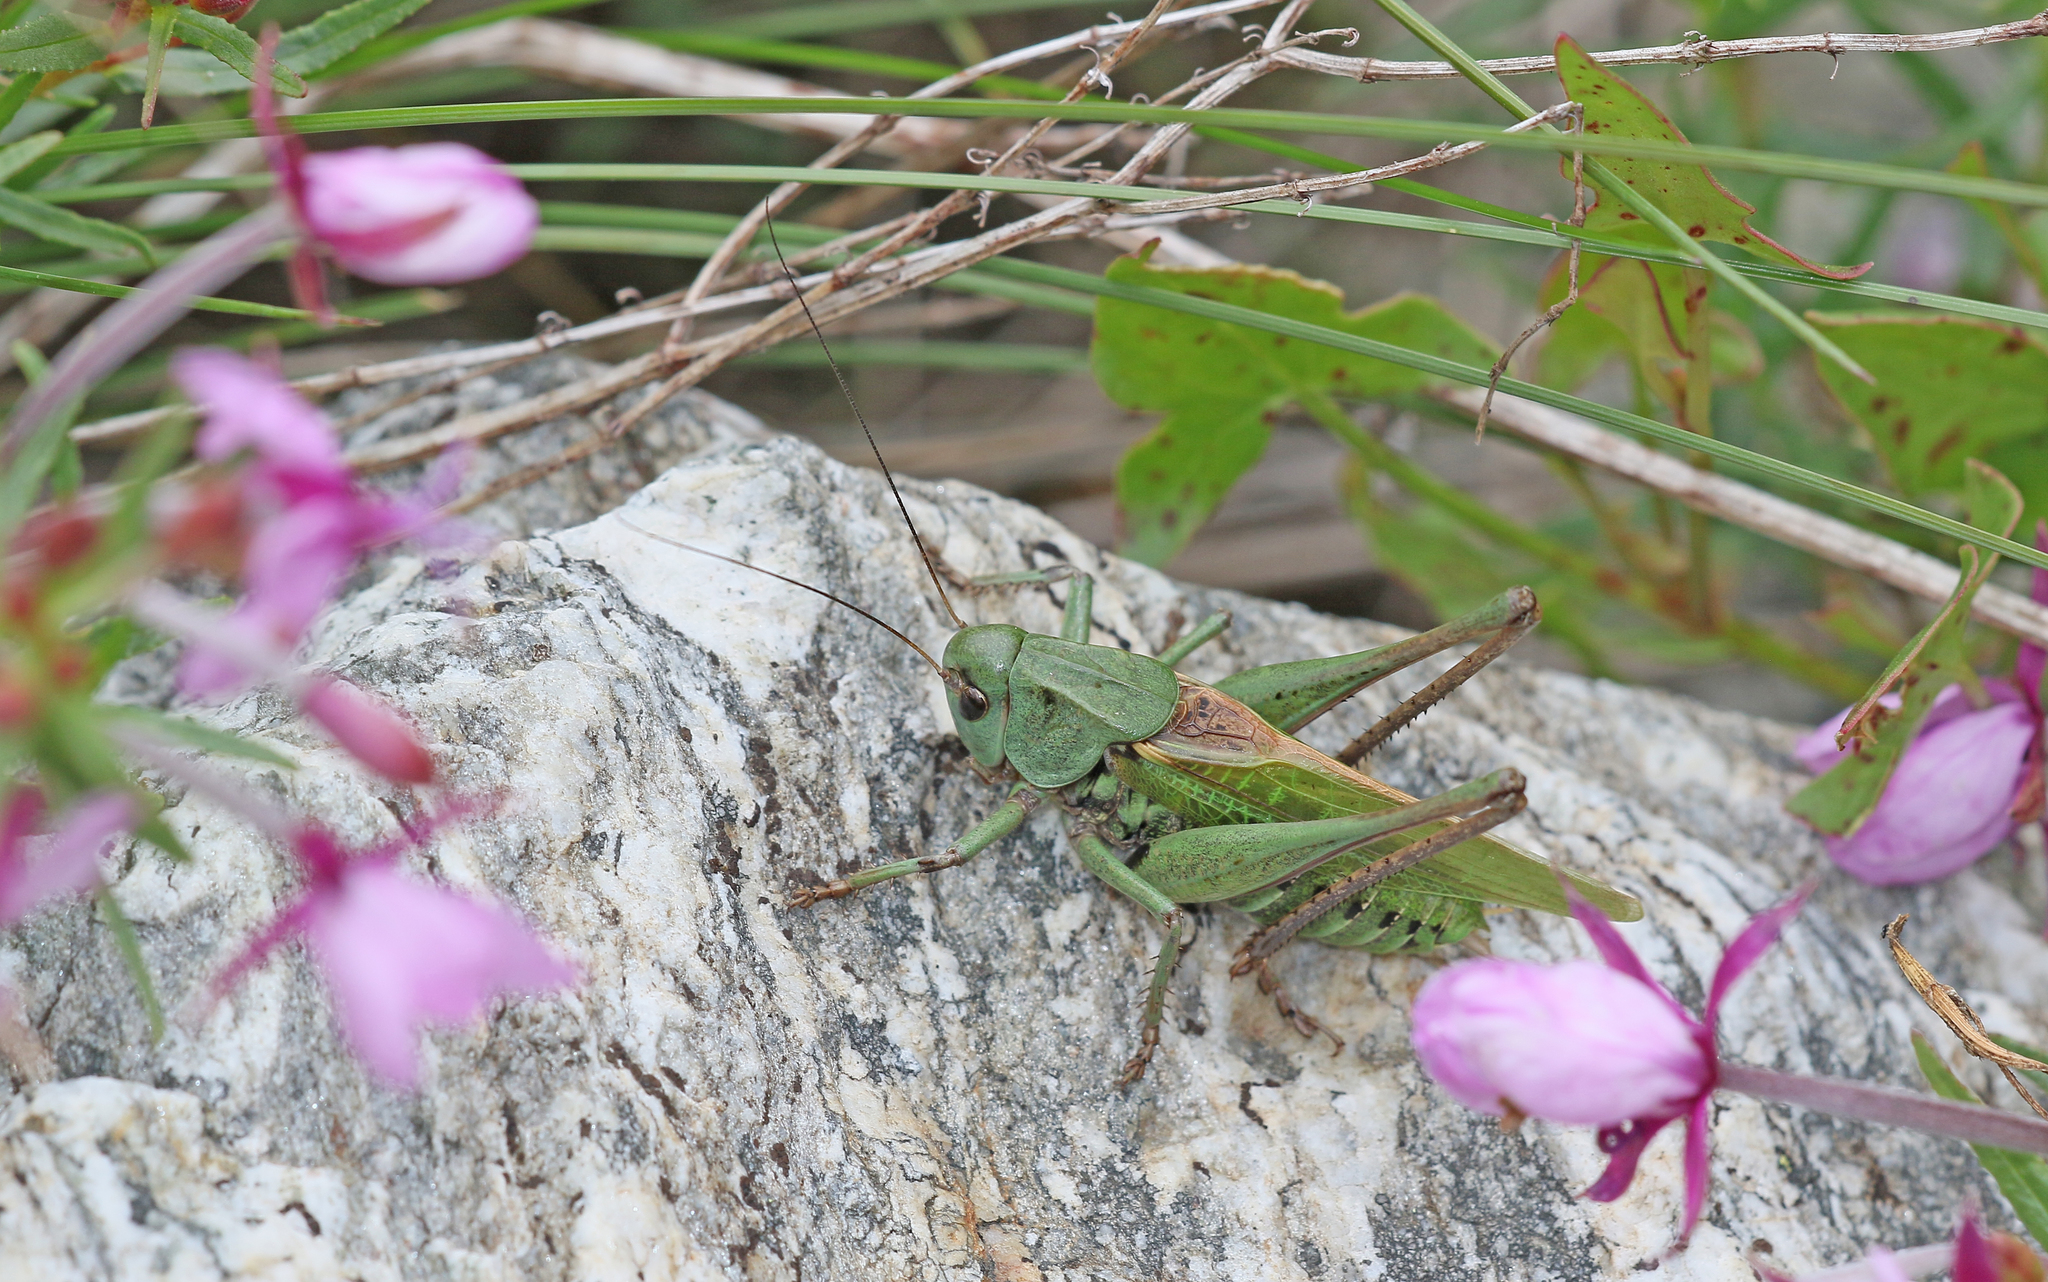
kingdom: Animalia
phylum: Arthropoda
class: Insecta
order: Orthoptera
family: Tettigoniidae
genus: Decticus
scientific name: Decticus verrucivorus
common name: Wart-biter
